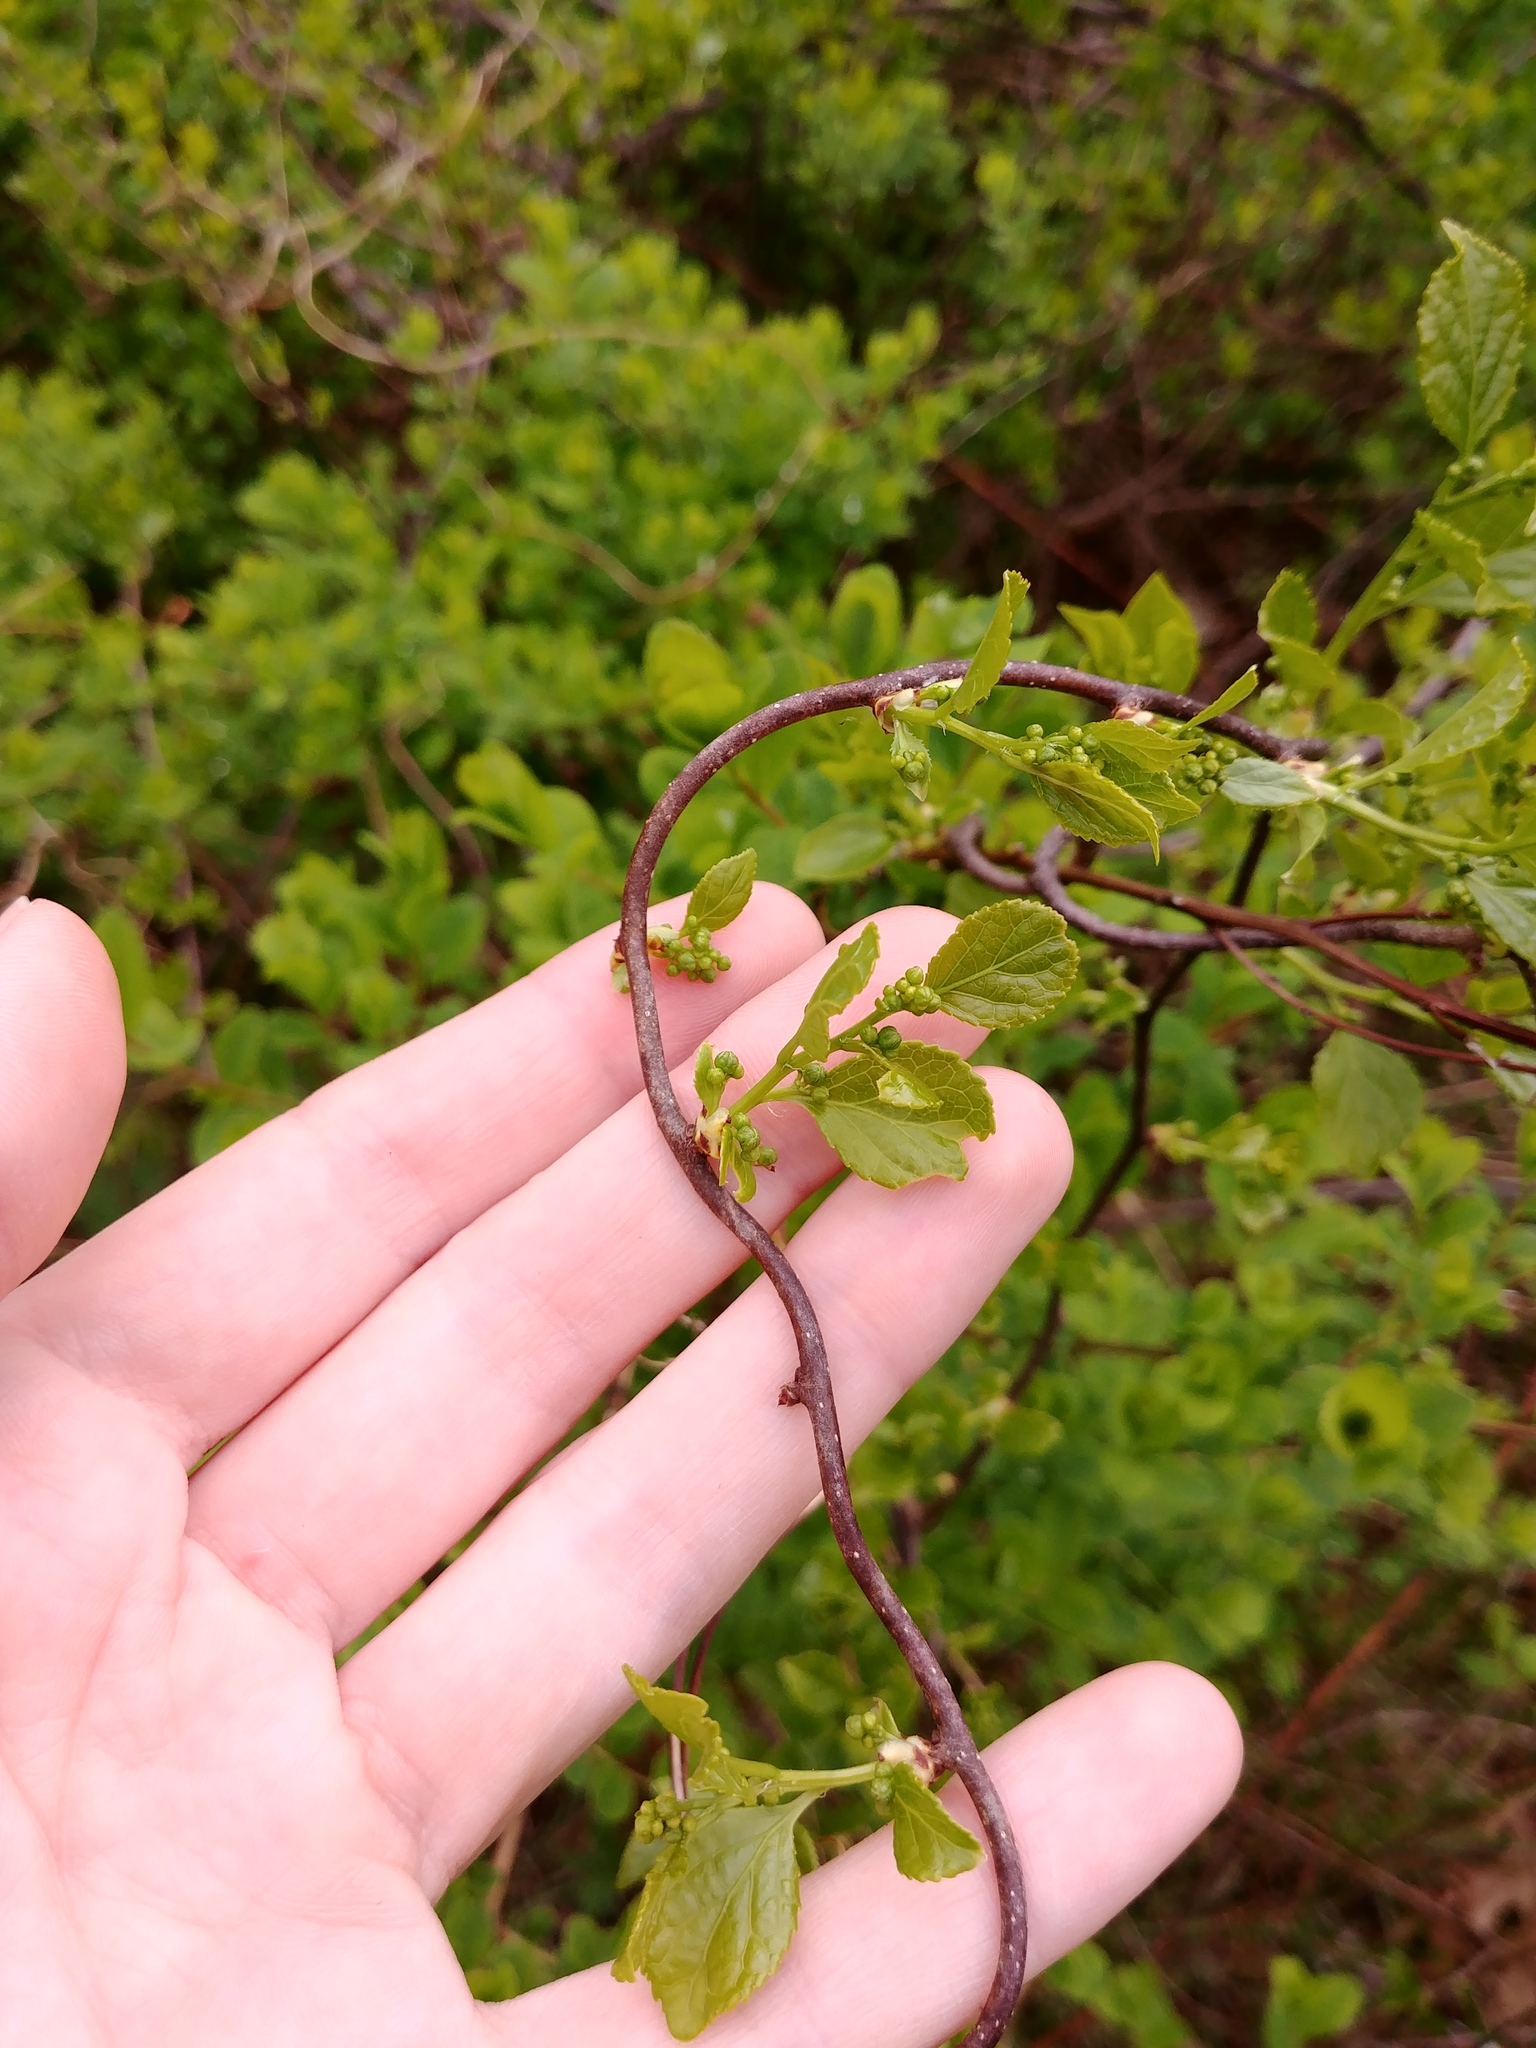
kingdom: Plantae
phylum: Tracheophyta
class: Magnoliopsida
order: Celastrales
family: Celastraceae
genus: Celastrus
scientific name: Celastrus orbiculatus
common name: Oriental bittersweet
